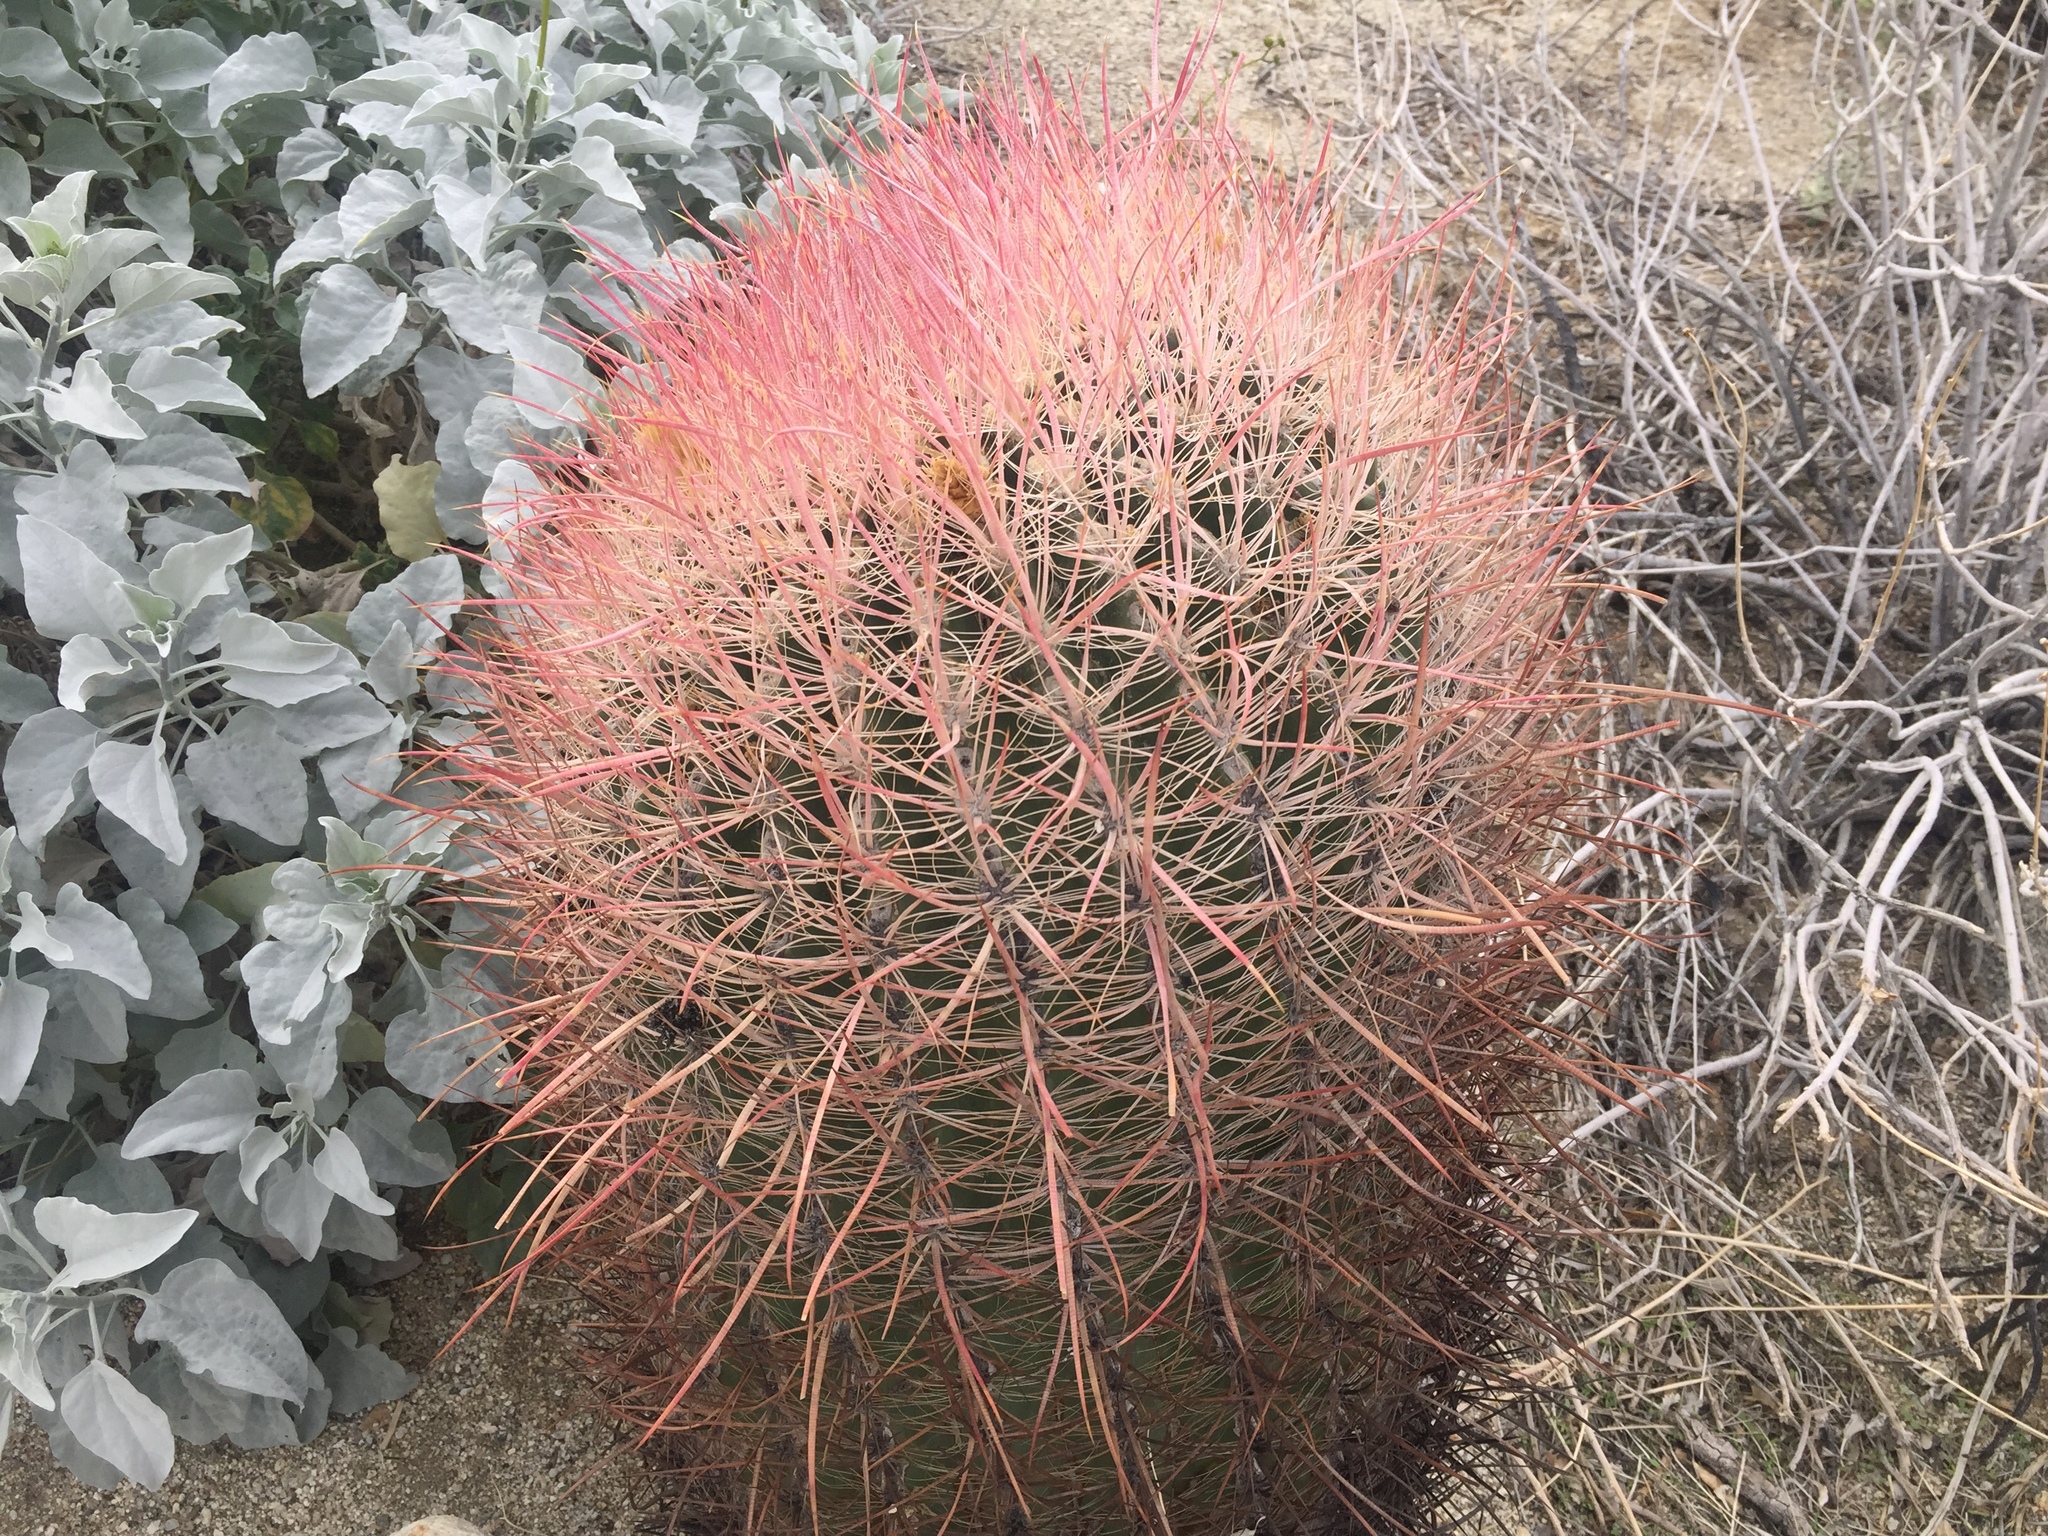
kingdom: Plantae
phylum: Tracheophyta
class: Magnoliopsida
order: Caryophyllales
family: Cactaceae
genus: Ferocactus
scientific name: Ferocactus cylindraceus
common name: California barrel cactus
